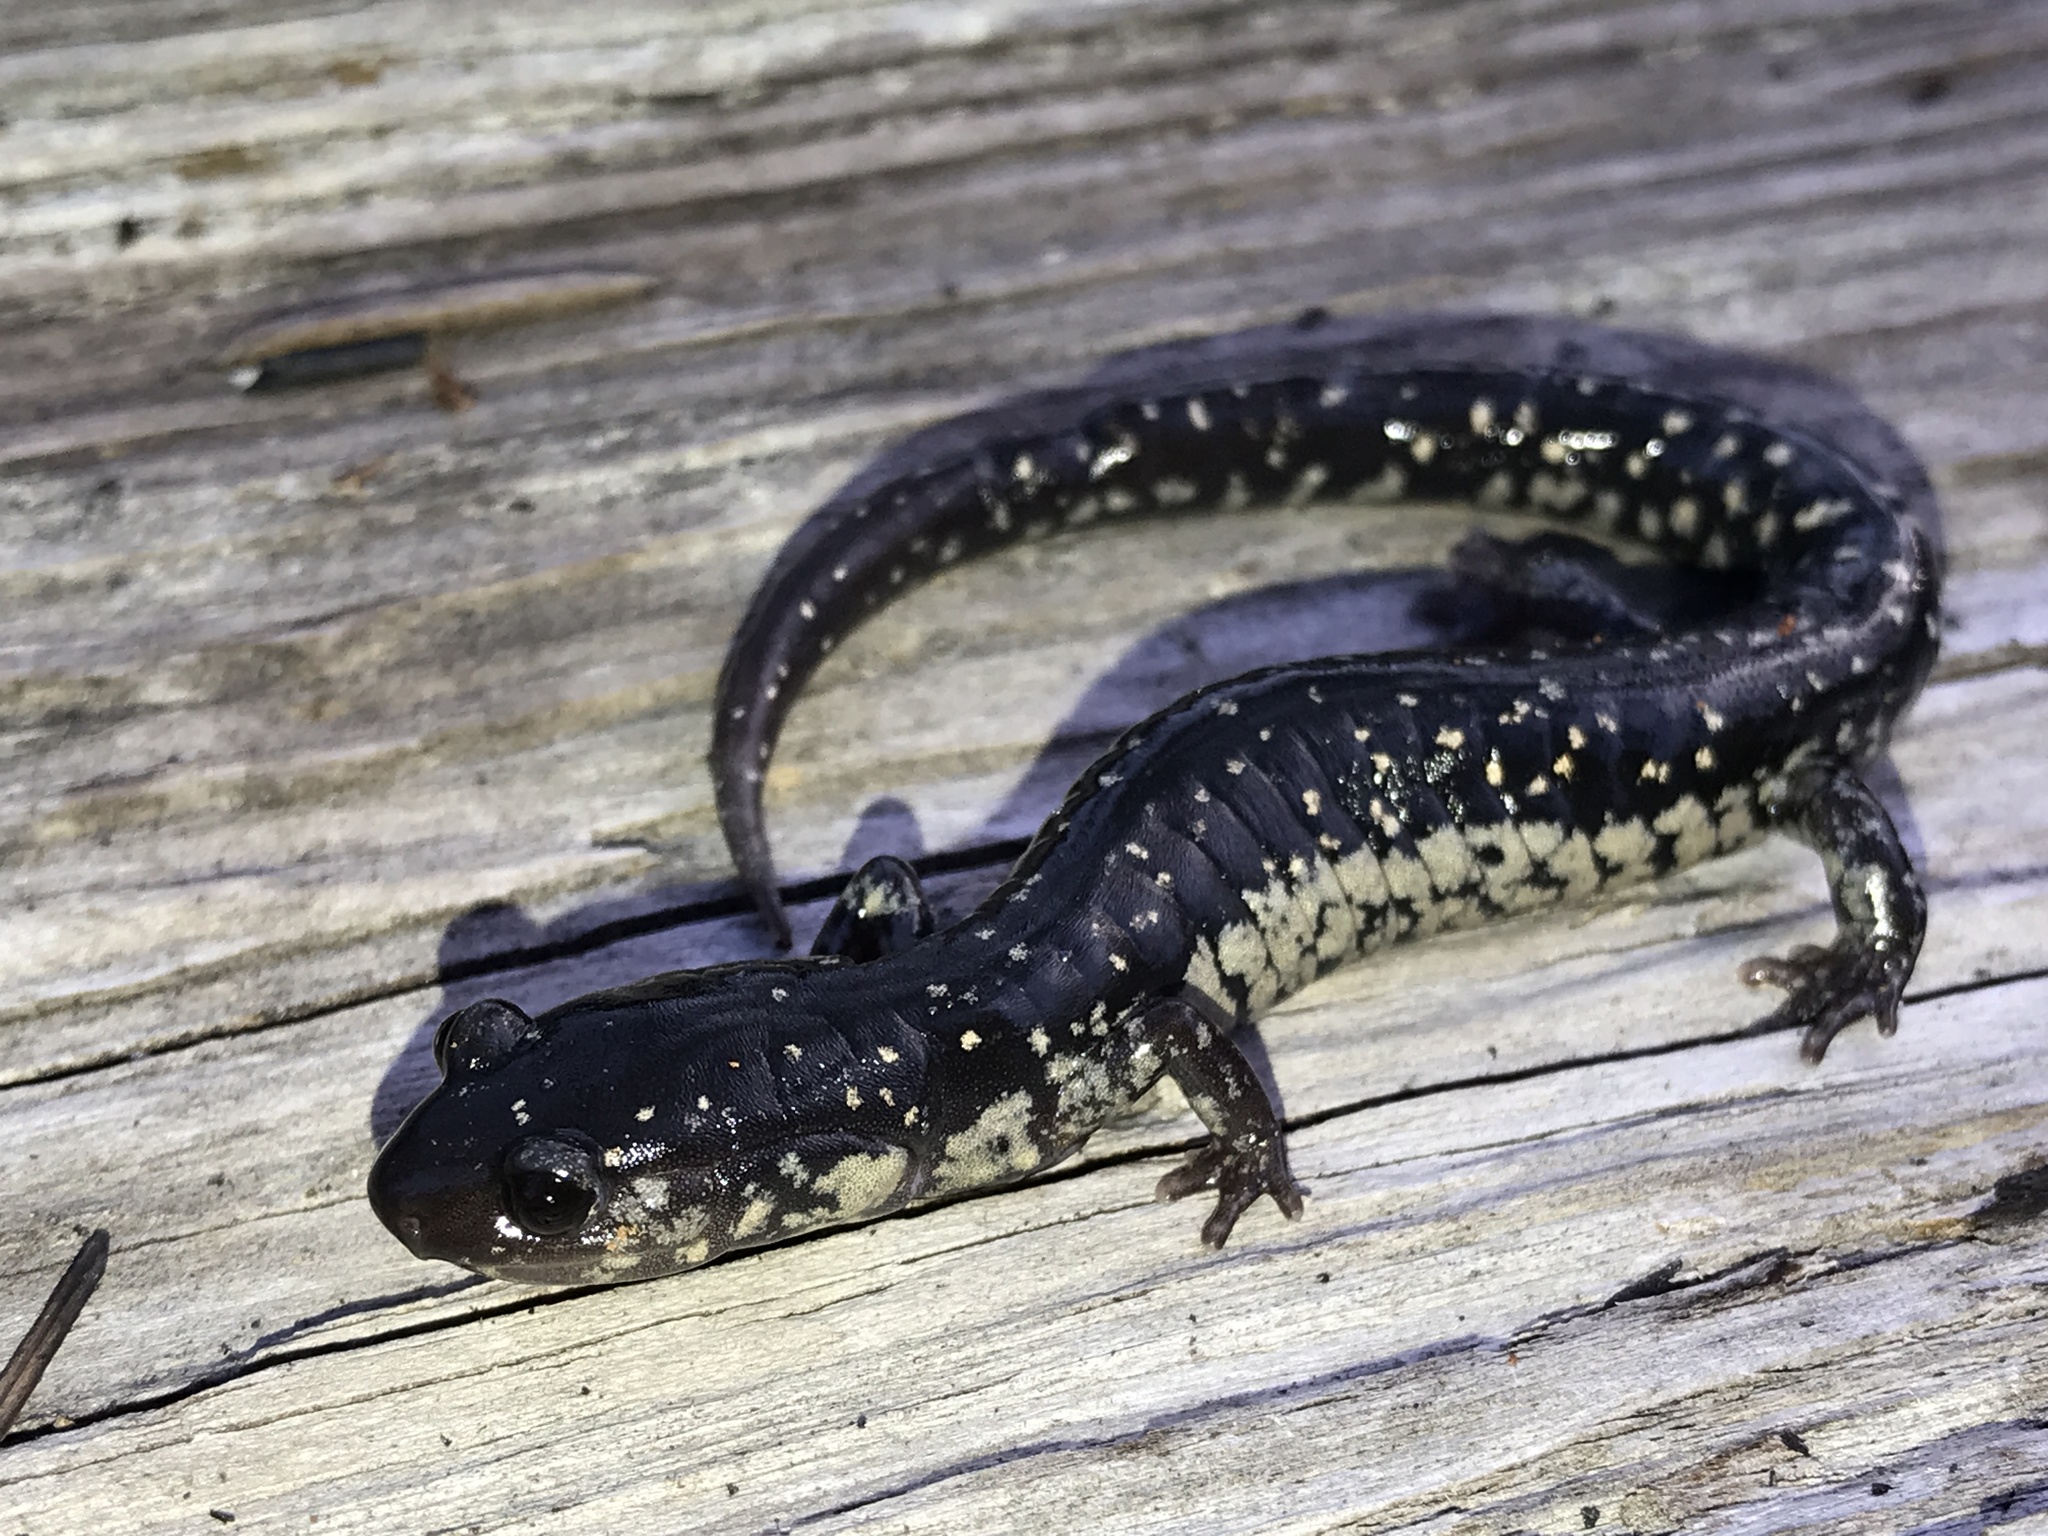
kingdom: Animalia
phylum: Chordata
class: Amphibia
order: Caudata
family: Plethodontidae
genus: Plethodon
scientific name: Plethodon mississippi
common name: Mississippi slimy salamander
